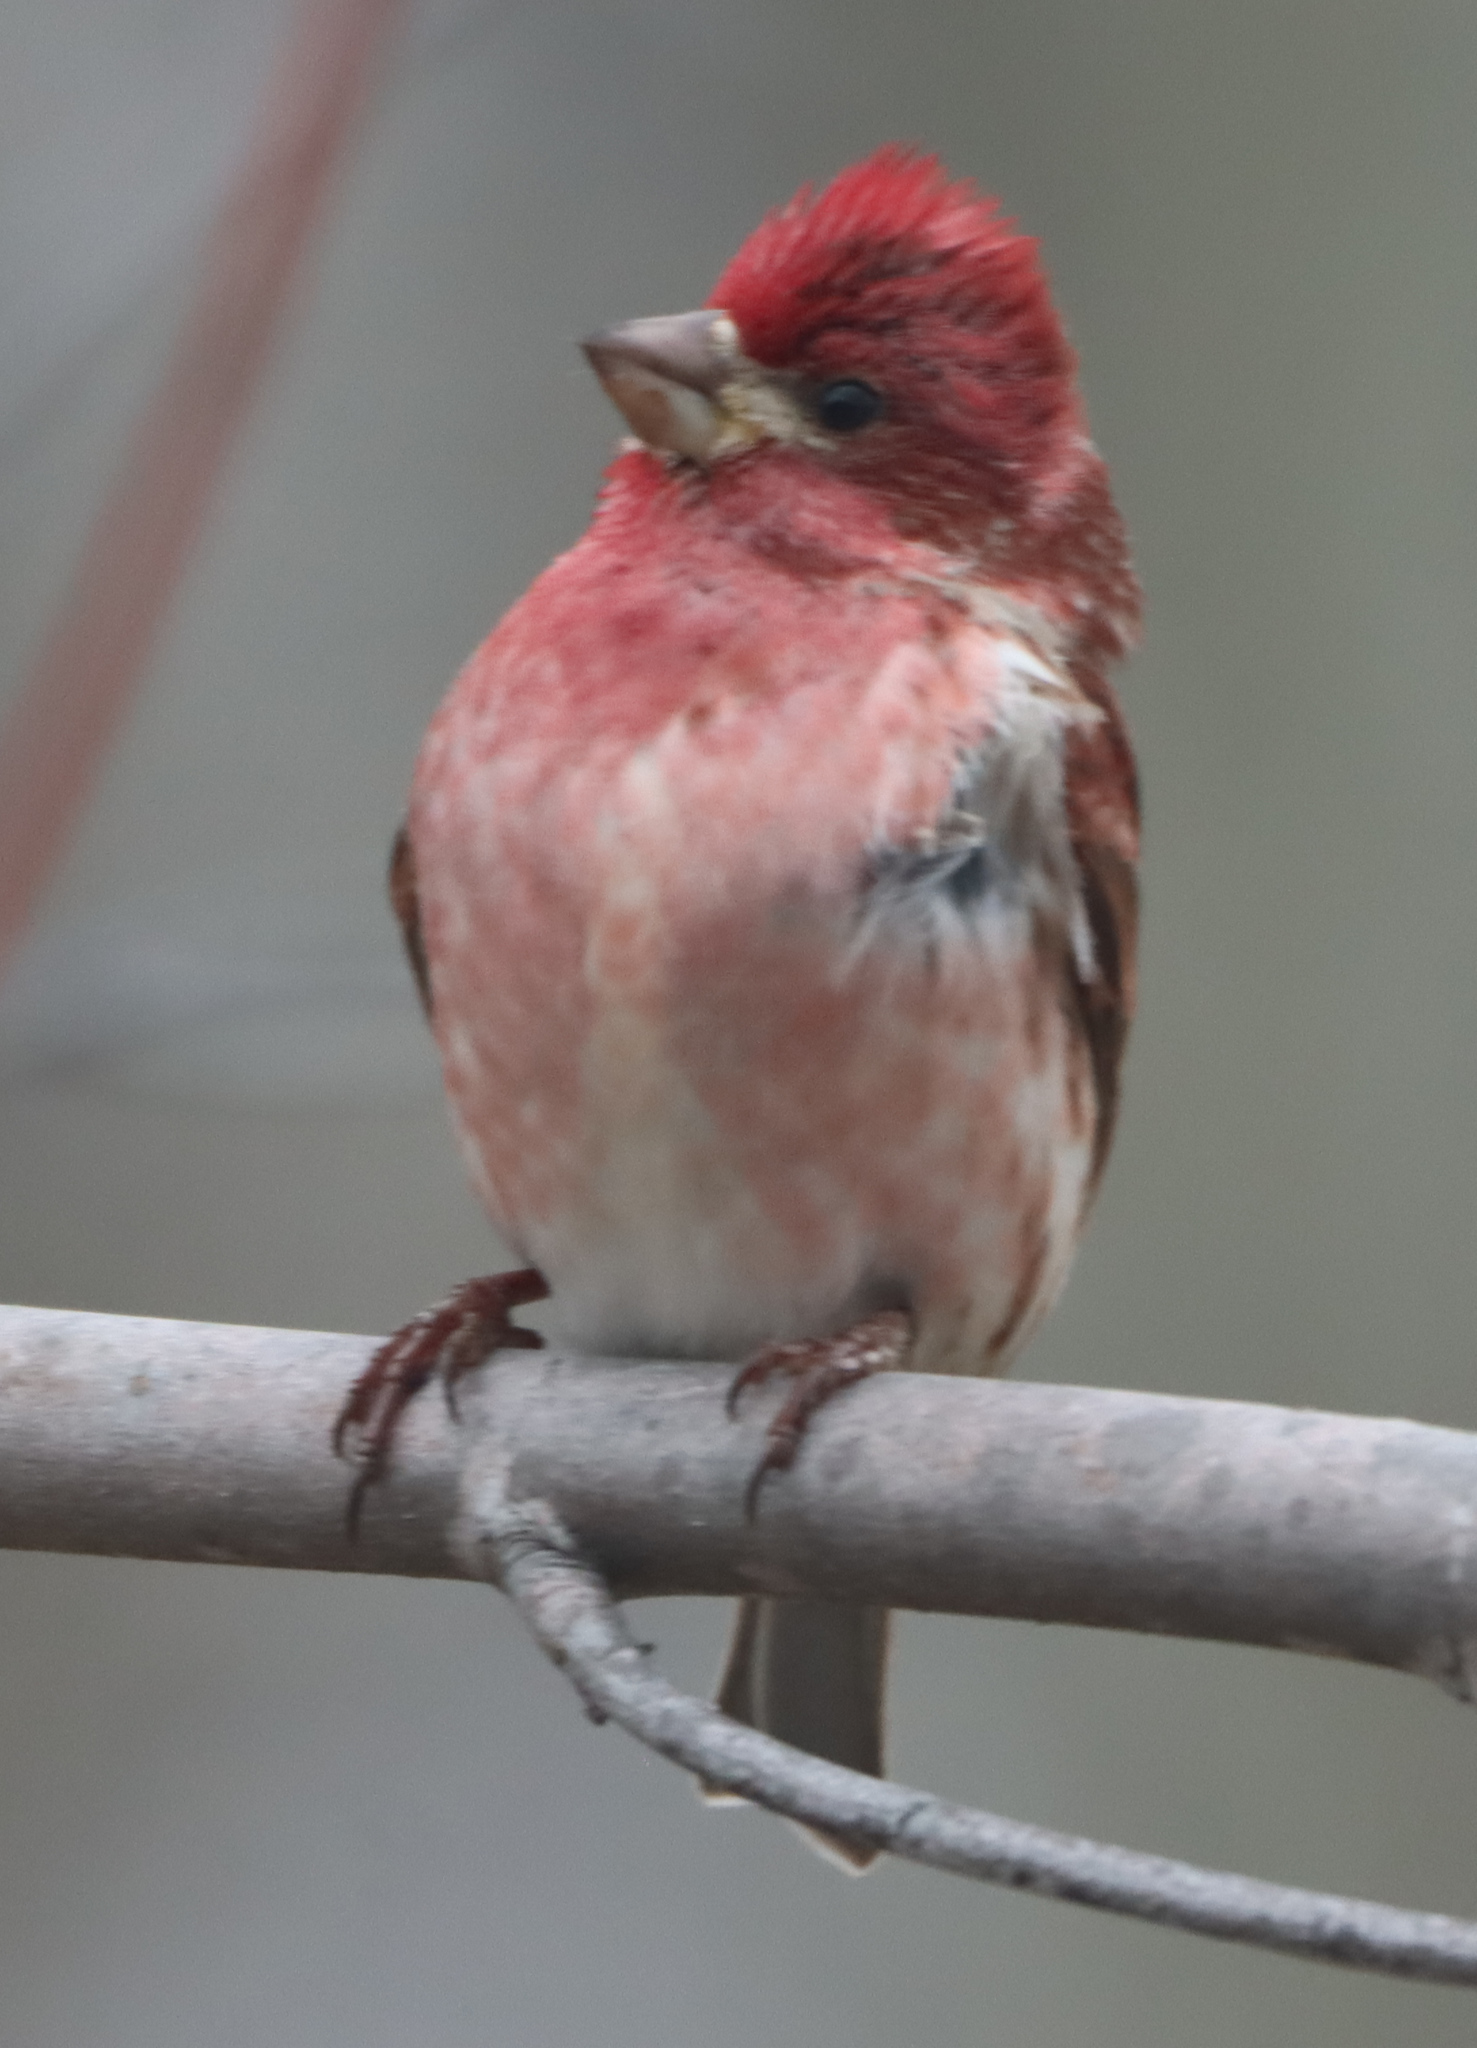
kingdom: Animalia
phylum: Chordata
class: Aves
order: Passeriformes
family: Fringillidae
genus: Haemorhous
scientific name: Haemorhous purpureus
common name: Purple finch
